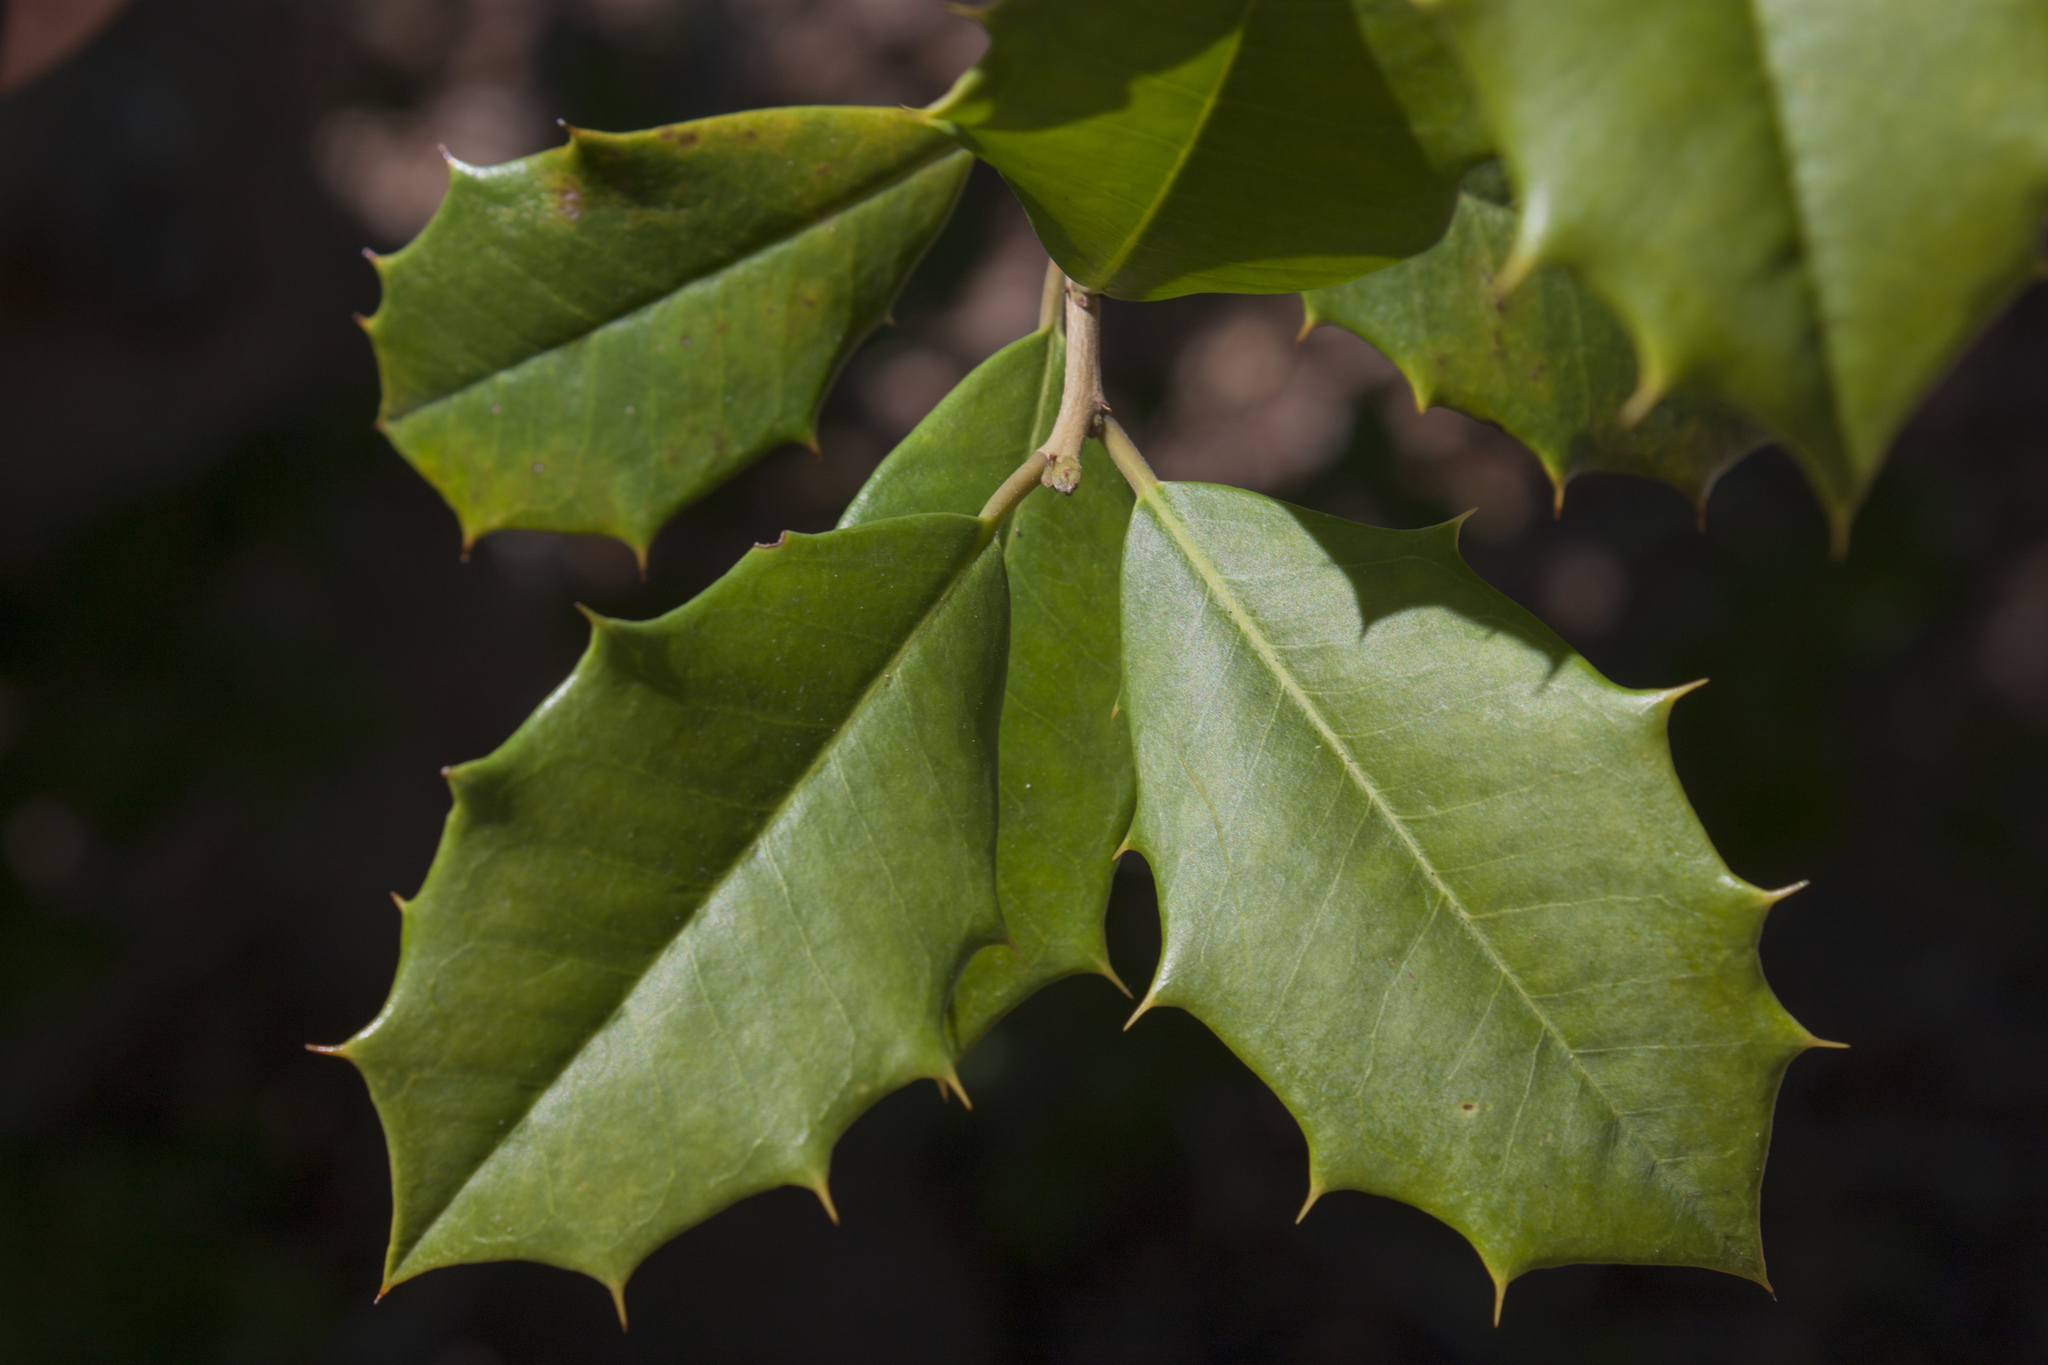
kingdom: Plantae
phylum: Tracheophyta
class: Magnoliopsida
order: Aquifoliales
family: Aquifoliaceae
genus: Ilex
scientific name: Ilex opaca
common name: American holly
